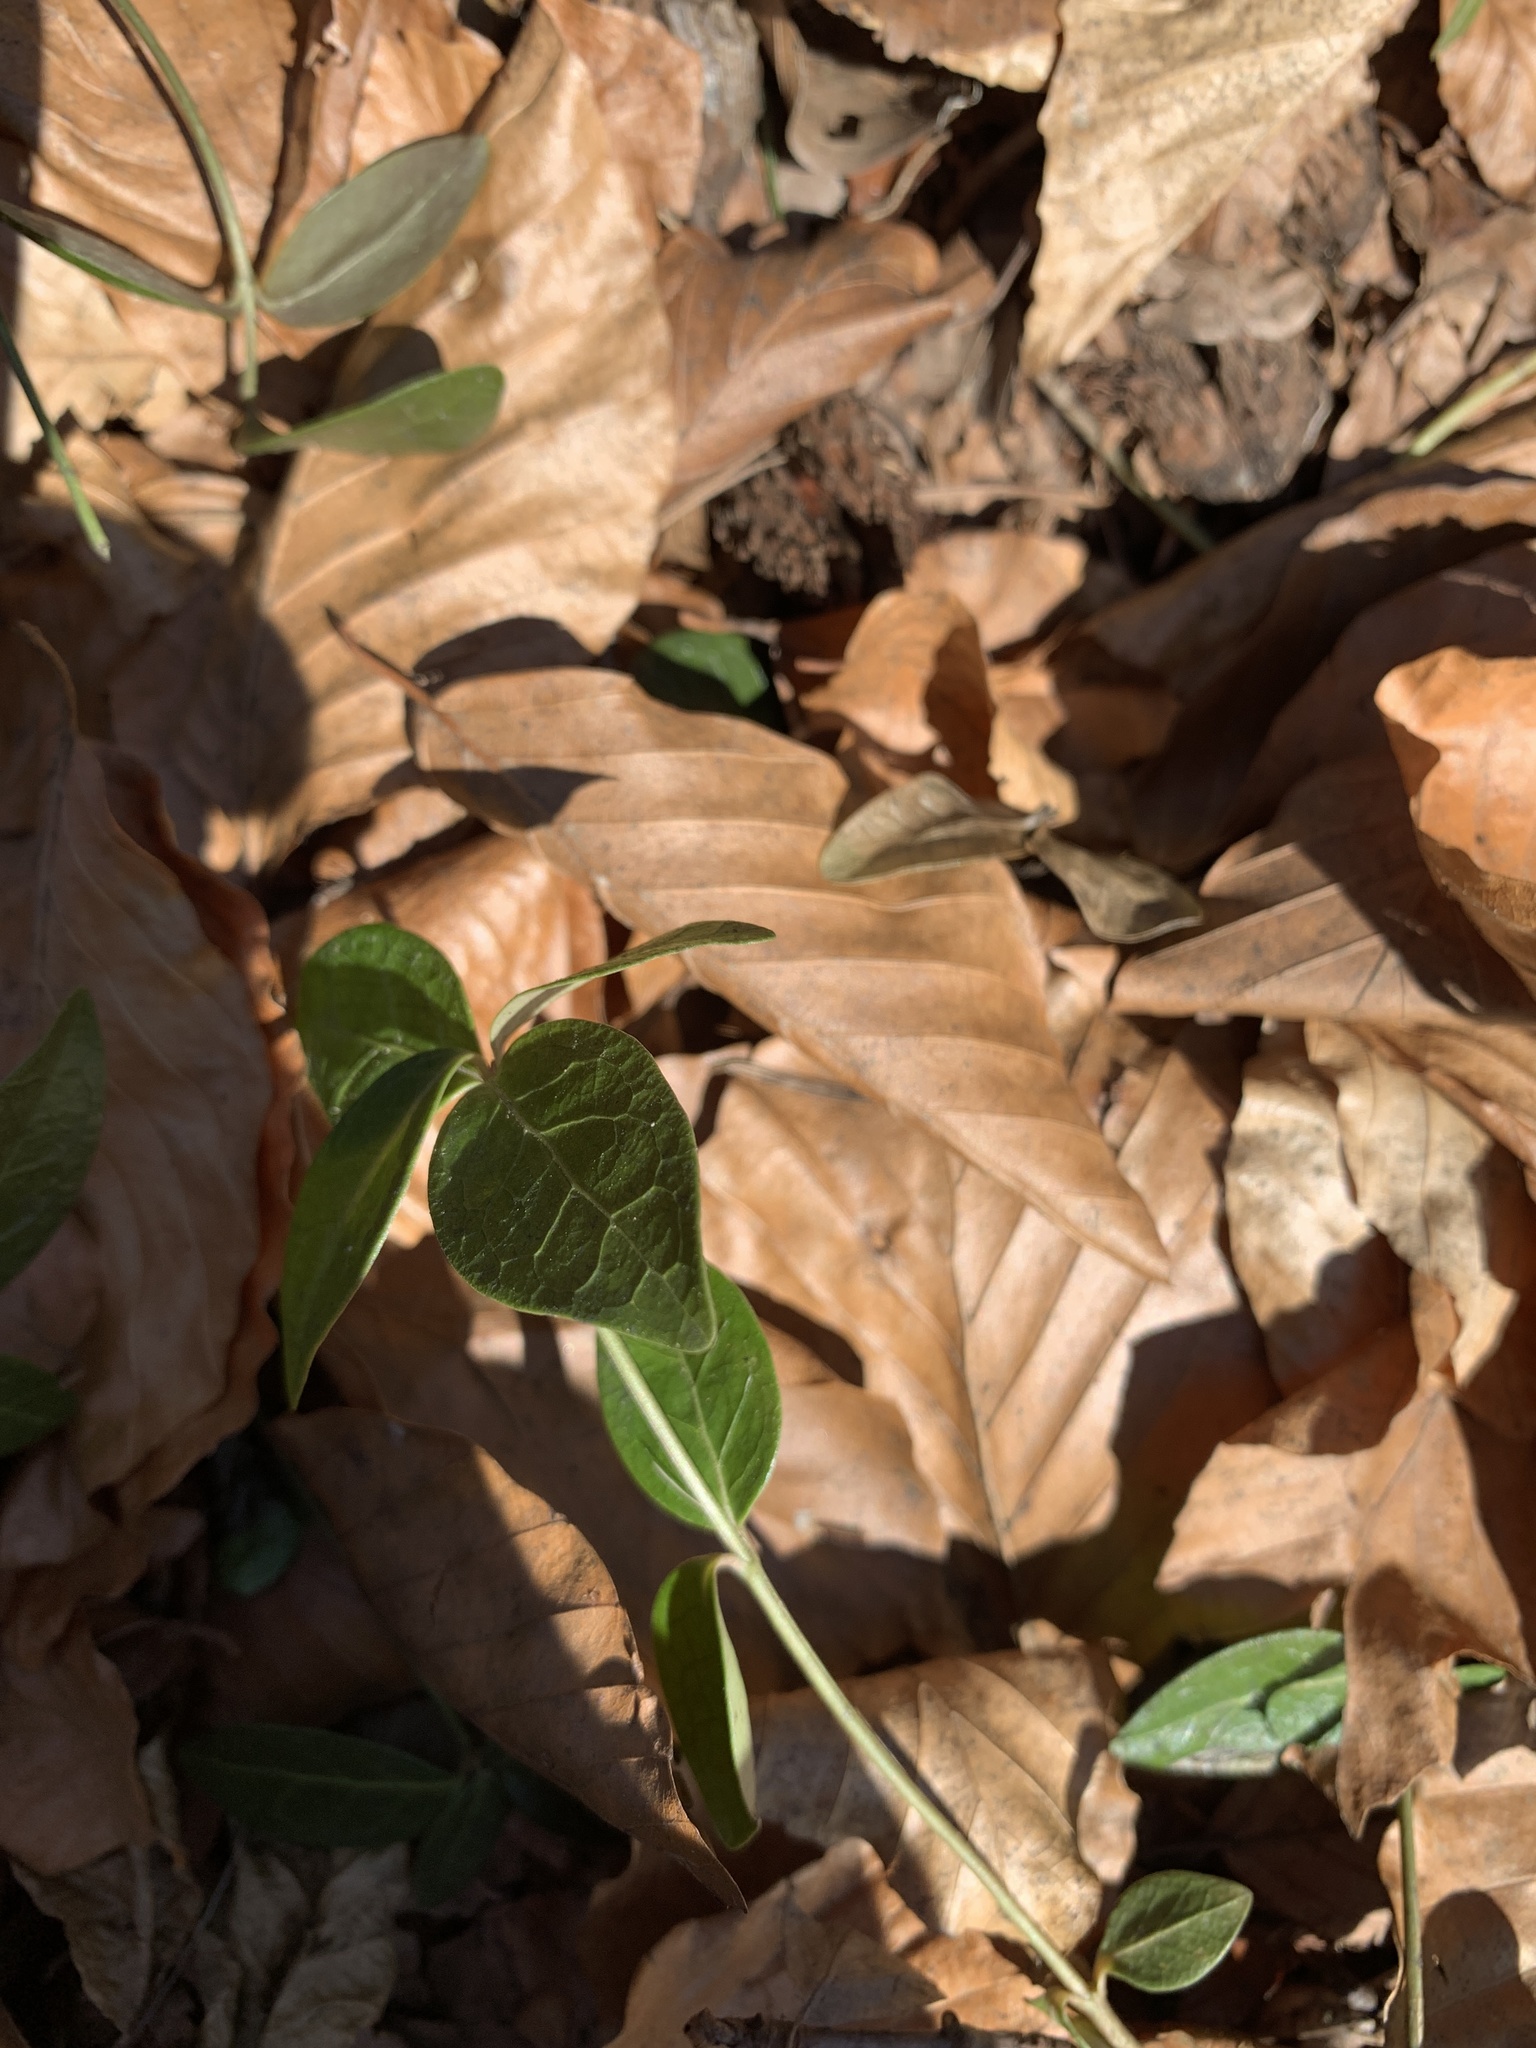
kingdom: Plantae
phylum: Tracheophyta
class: Magnoliopsida
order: Gentianales
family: Apocynaceae
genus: Vinca
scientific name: Vinca minor
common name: Lesser periwinkle
